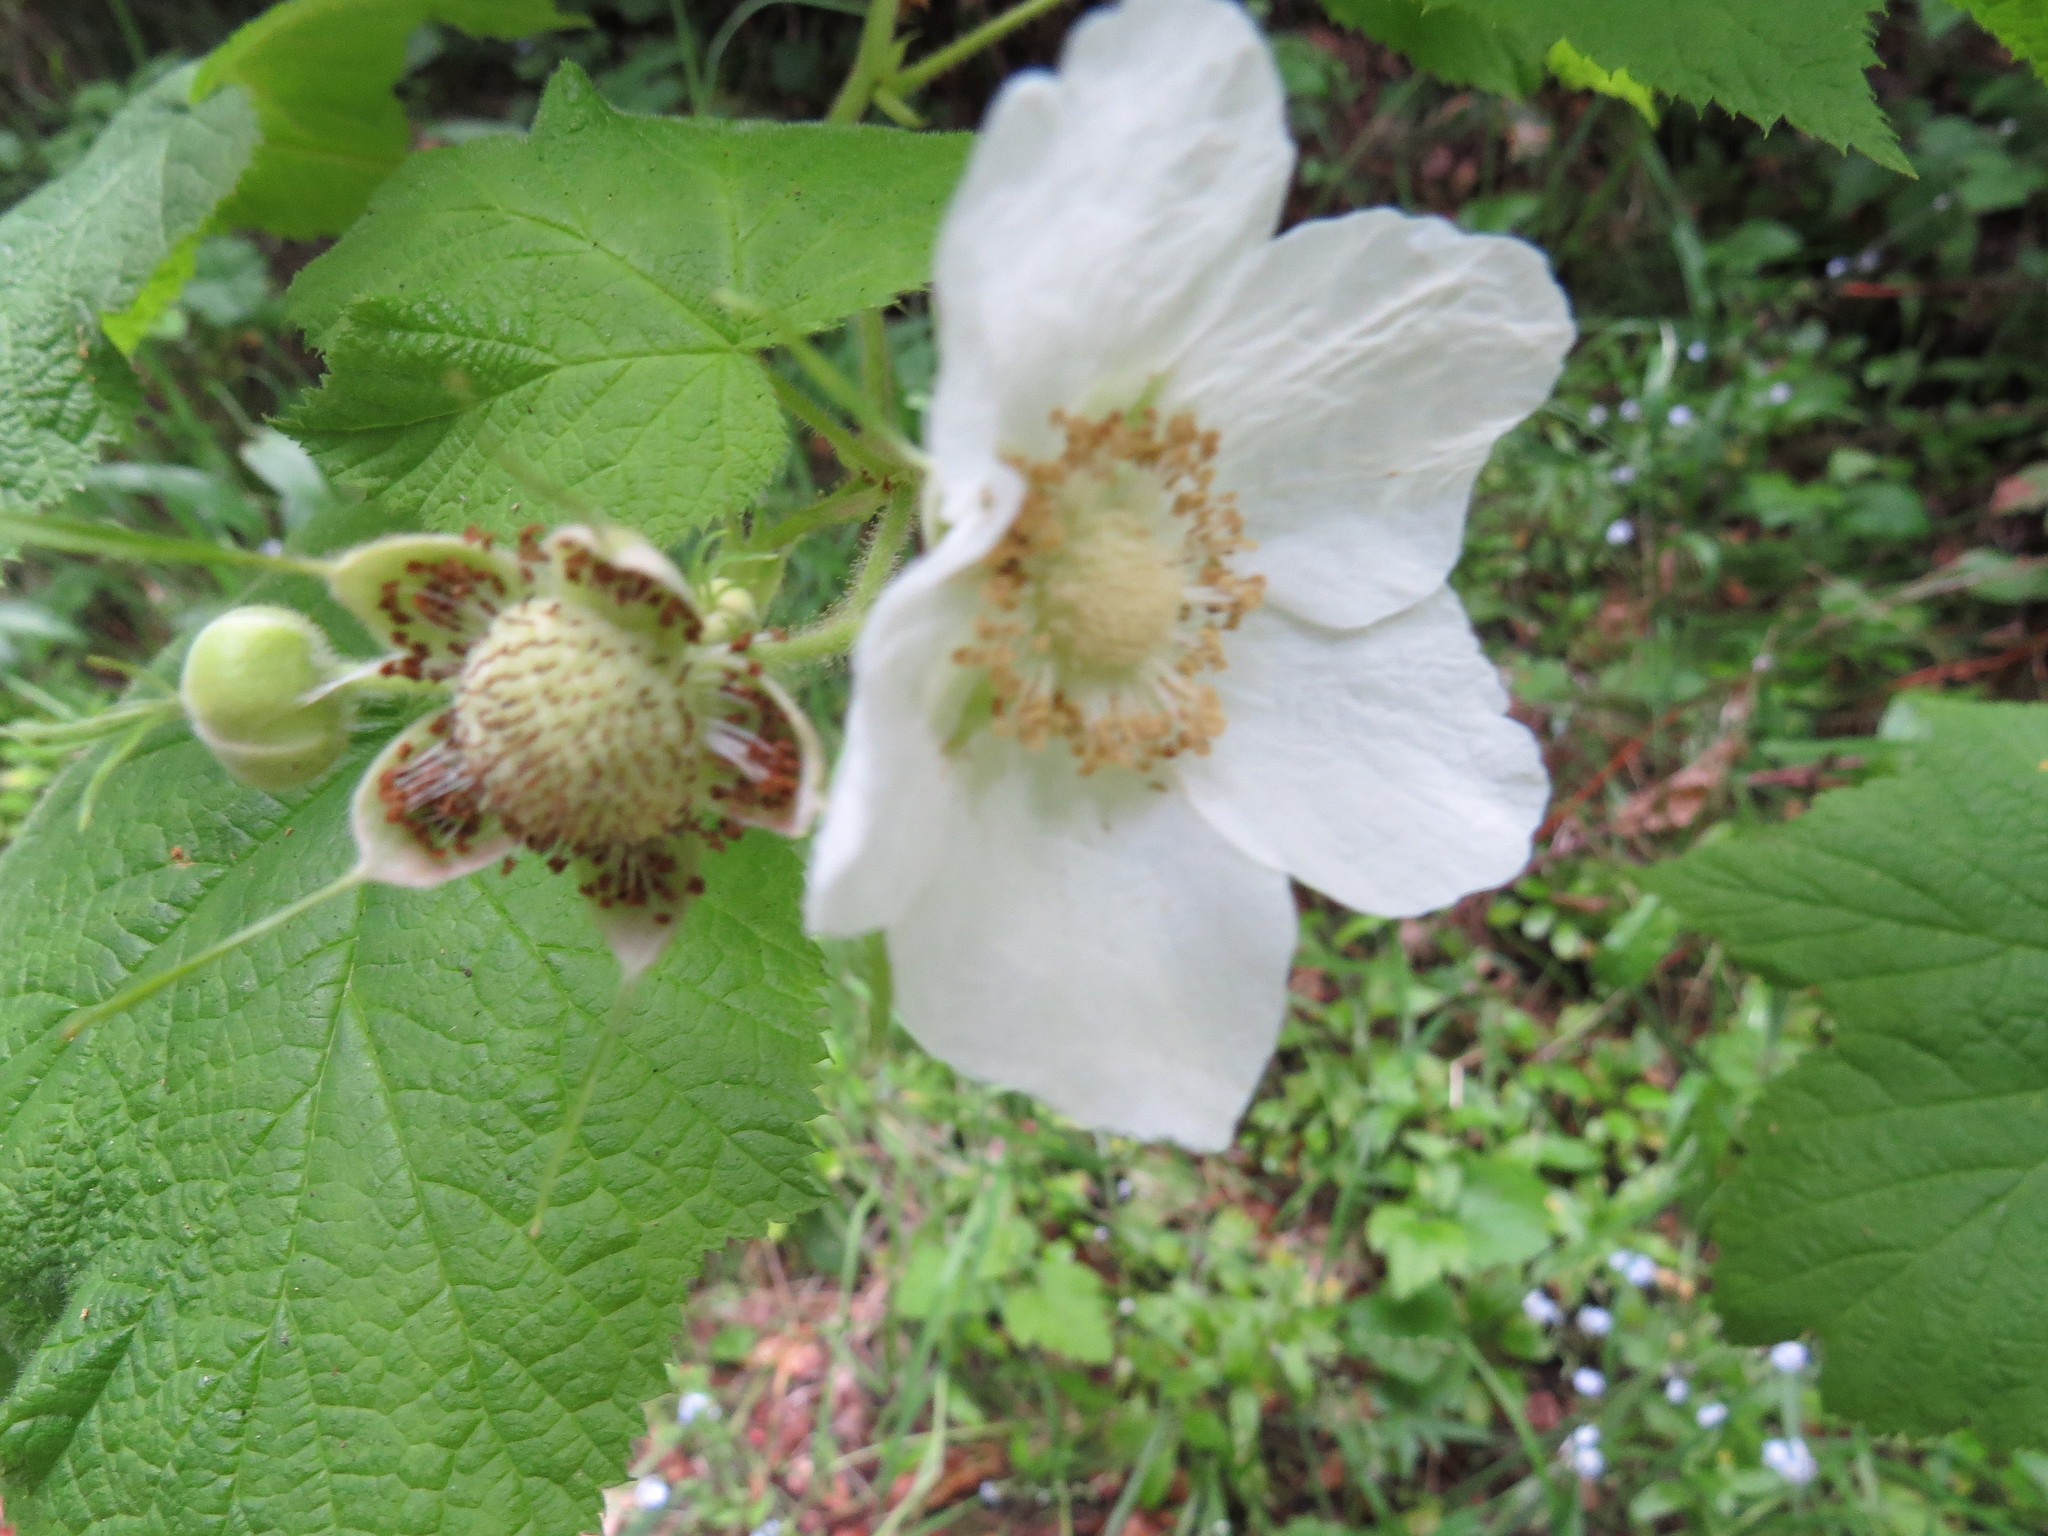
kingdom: Plantae
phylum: Tracheophyta
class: Magnoliopsida
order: Rosales
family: Rosaceae
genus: Rubus
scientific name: Rubus parviflorus
